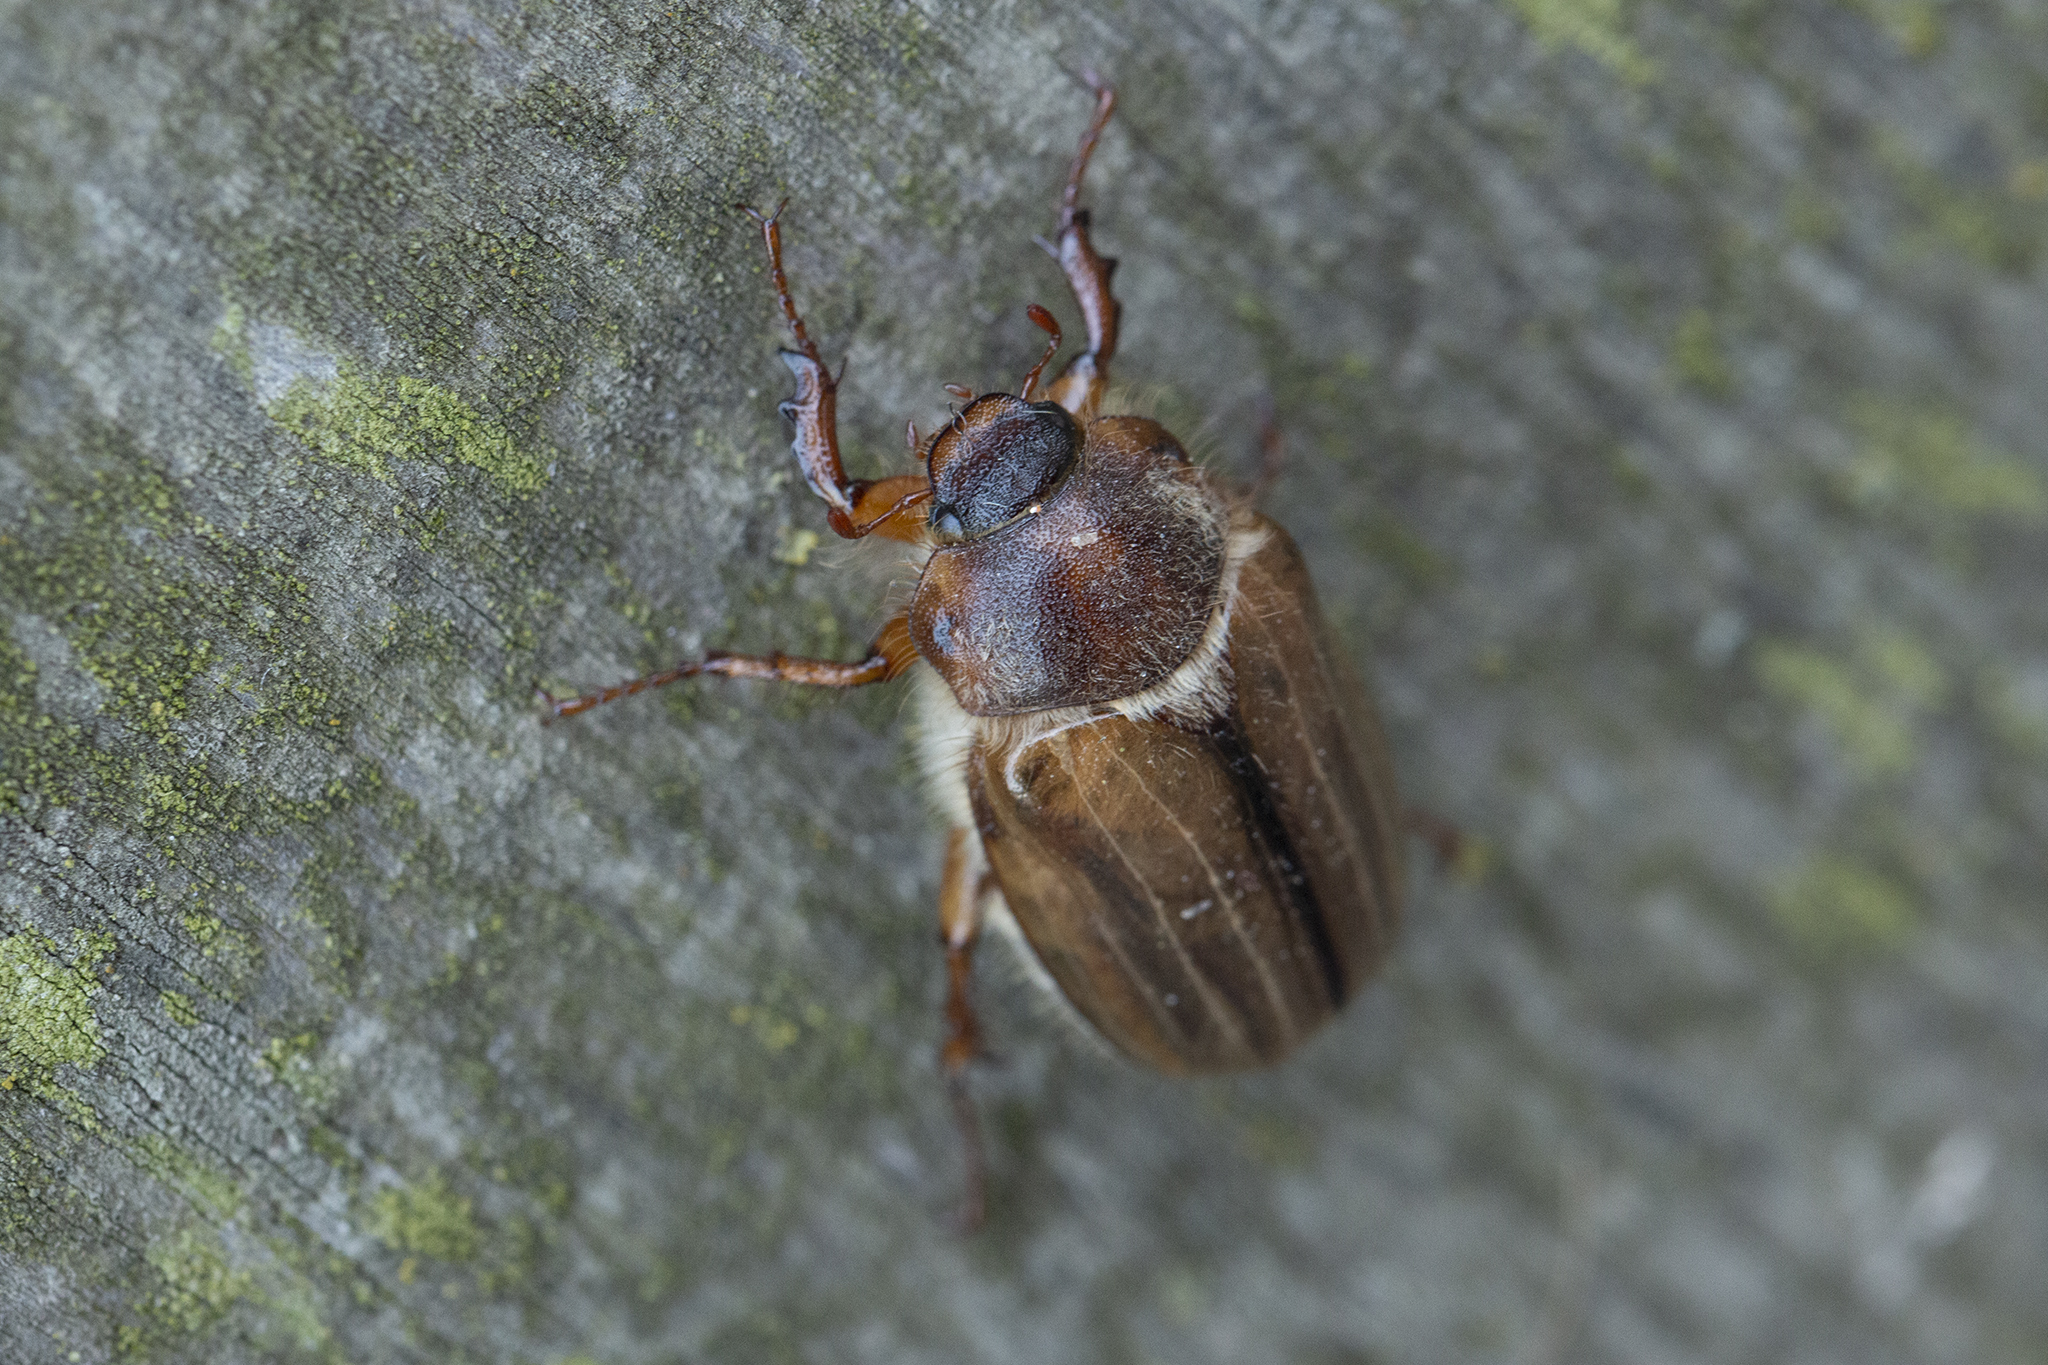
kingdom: Animalia
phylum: Arthropoda
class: Insecta
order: Coleoptera
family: Scarabaeidae
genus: Amphimallon
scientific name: Amphimallon solstitiale
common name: Summer chafer
